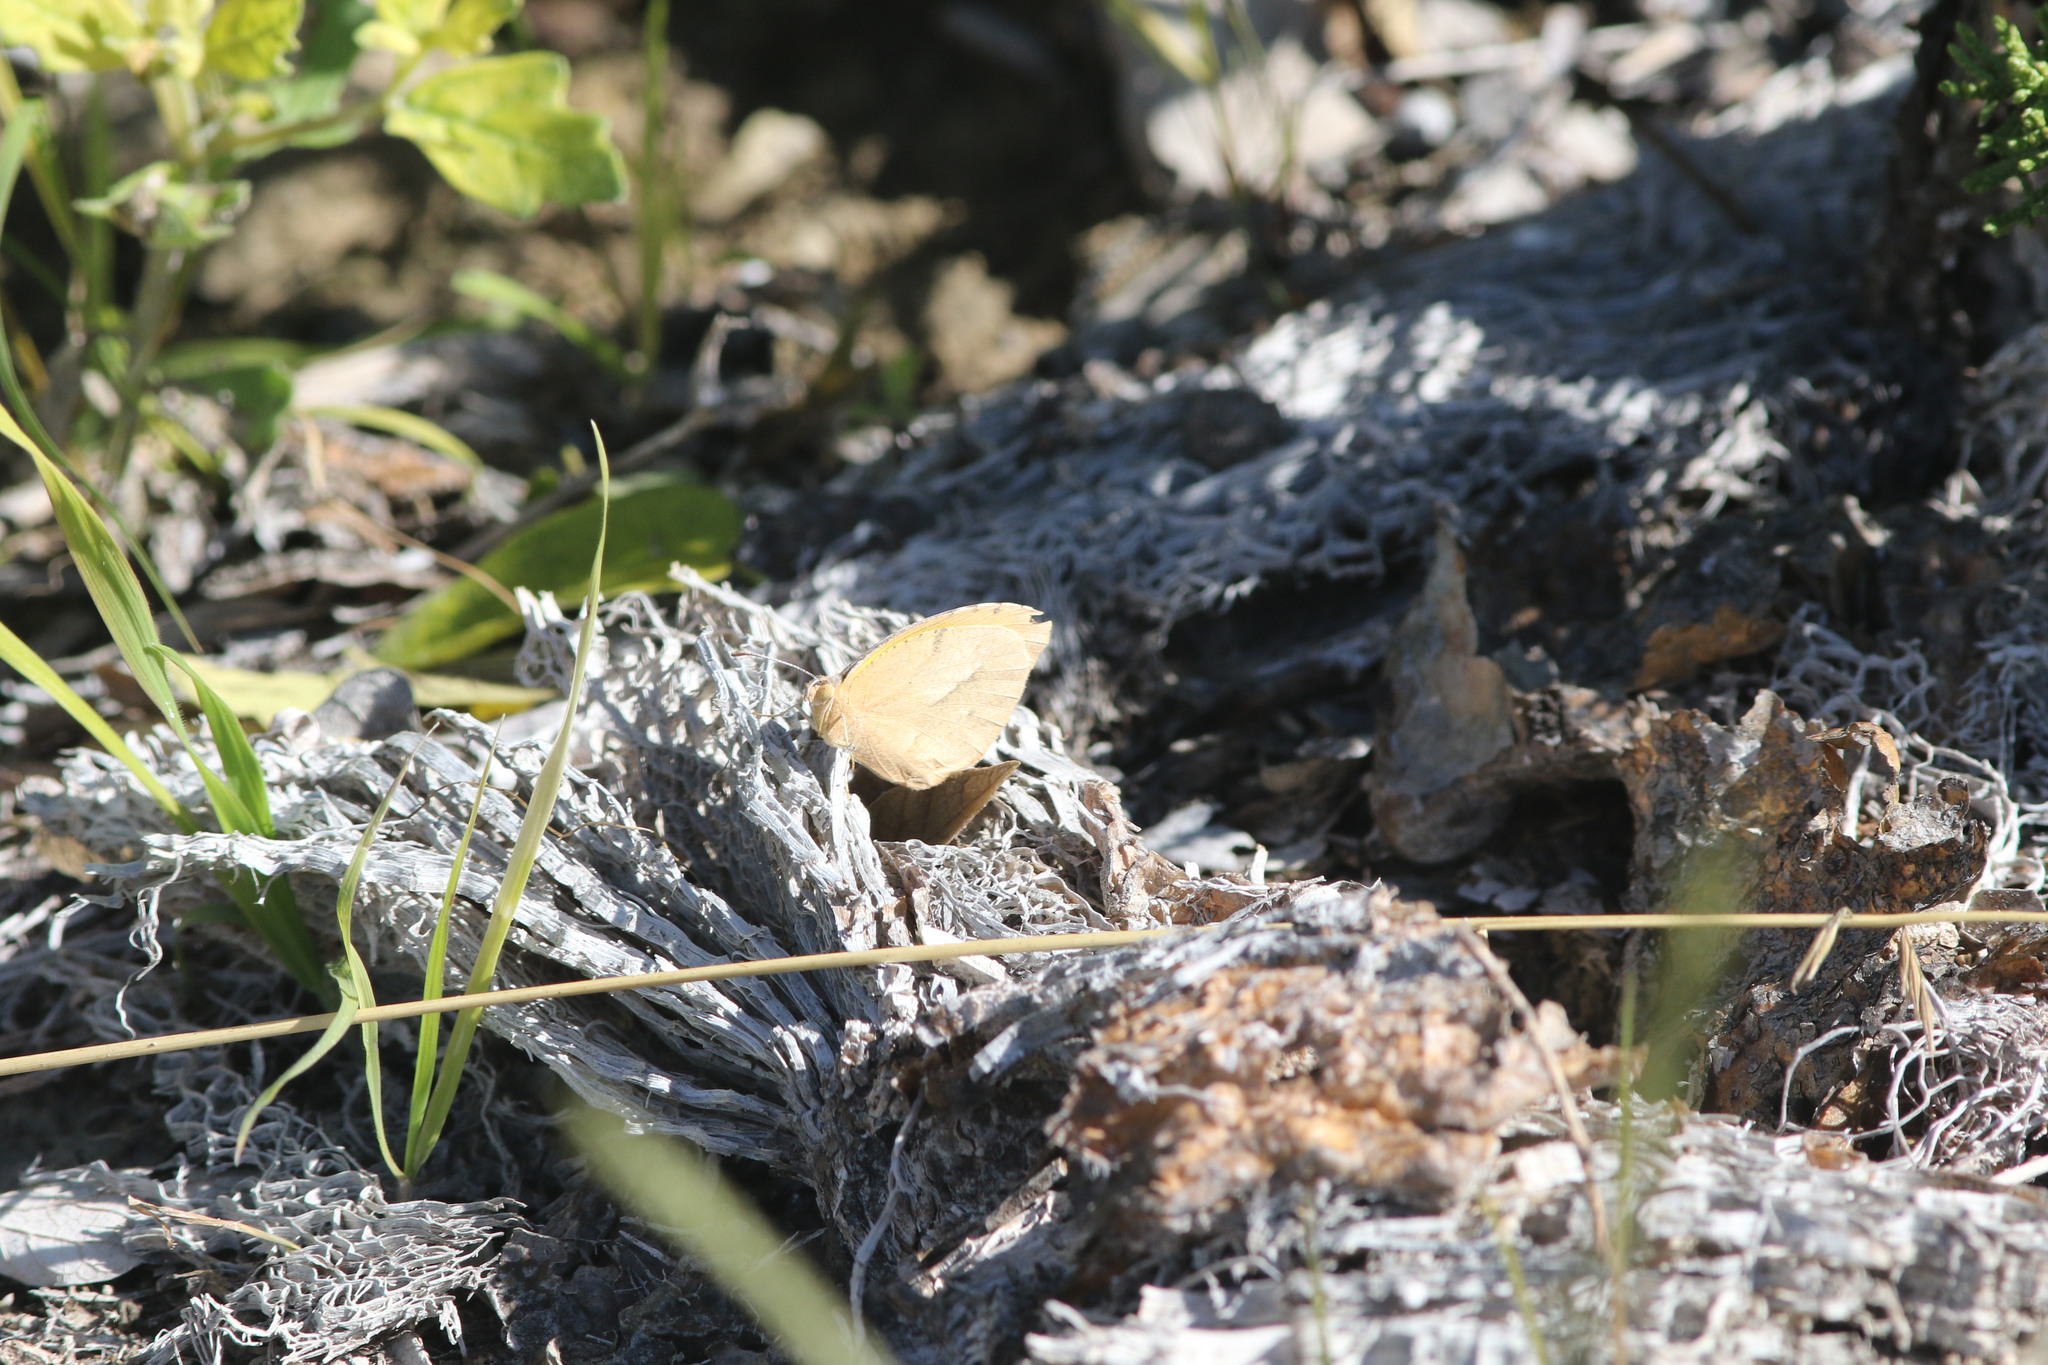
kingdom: Animalia
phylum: Arthropoda
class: Insecta
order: Lepidoptera
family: Pieridae
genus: Abaeis
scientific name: Abaeis nicippe
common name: Sleepy orange
